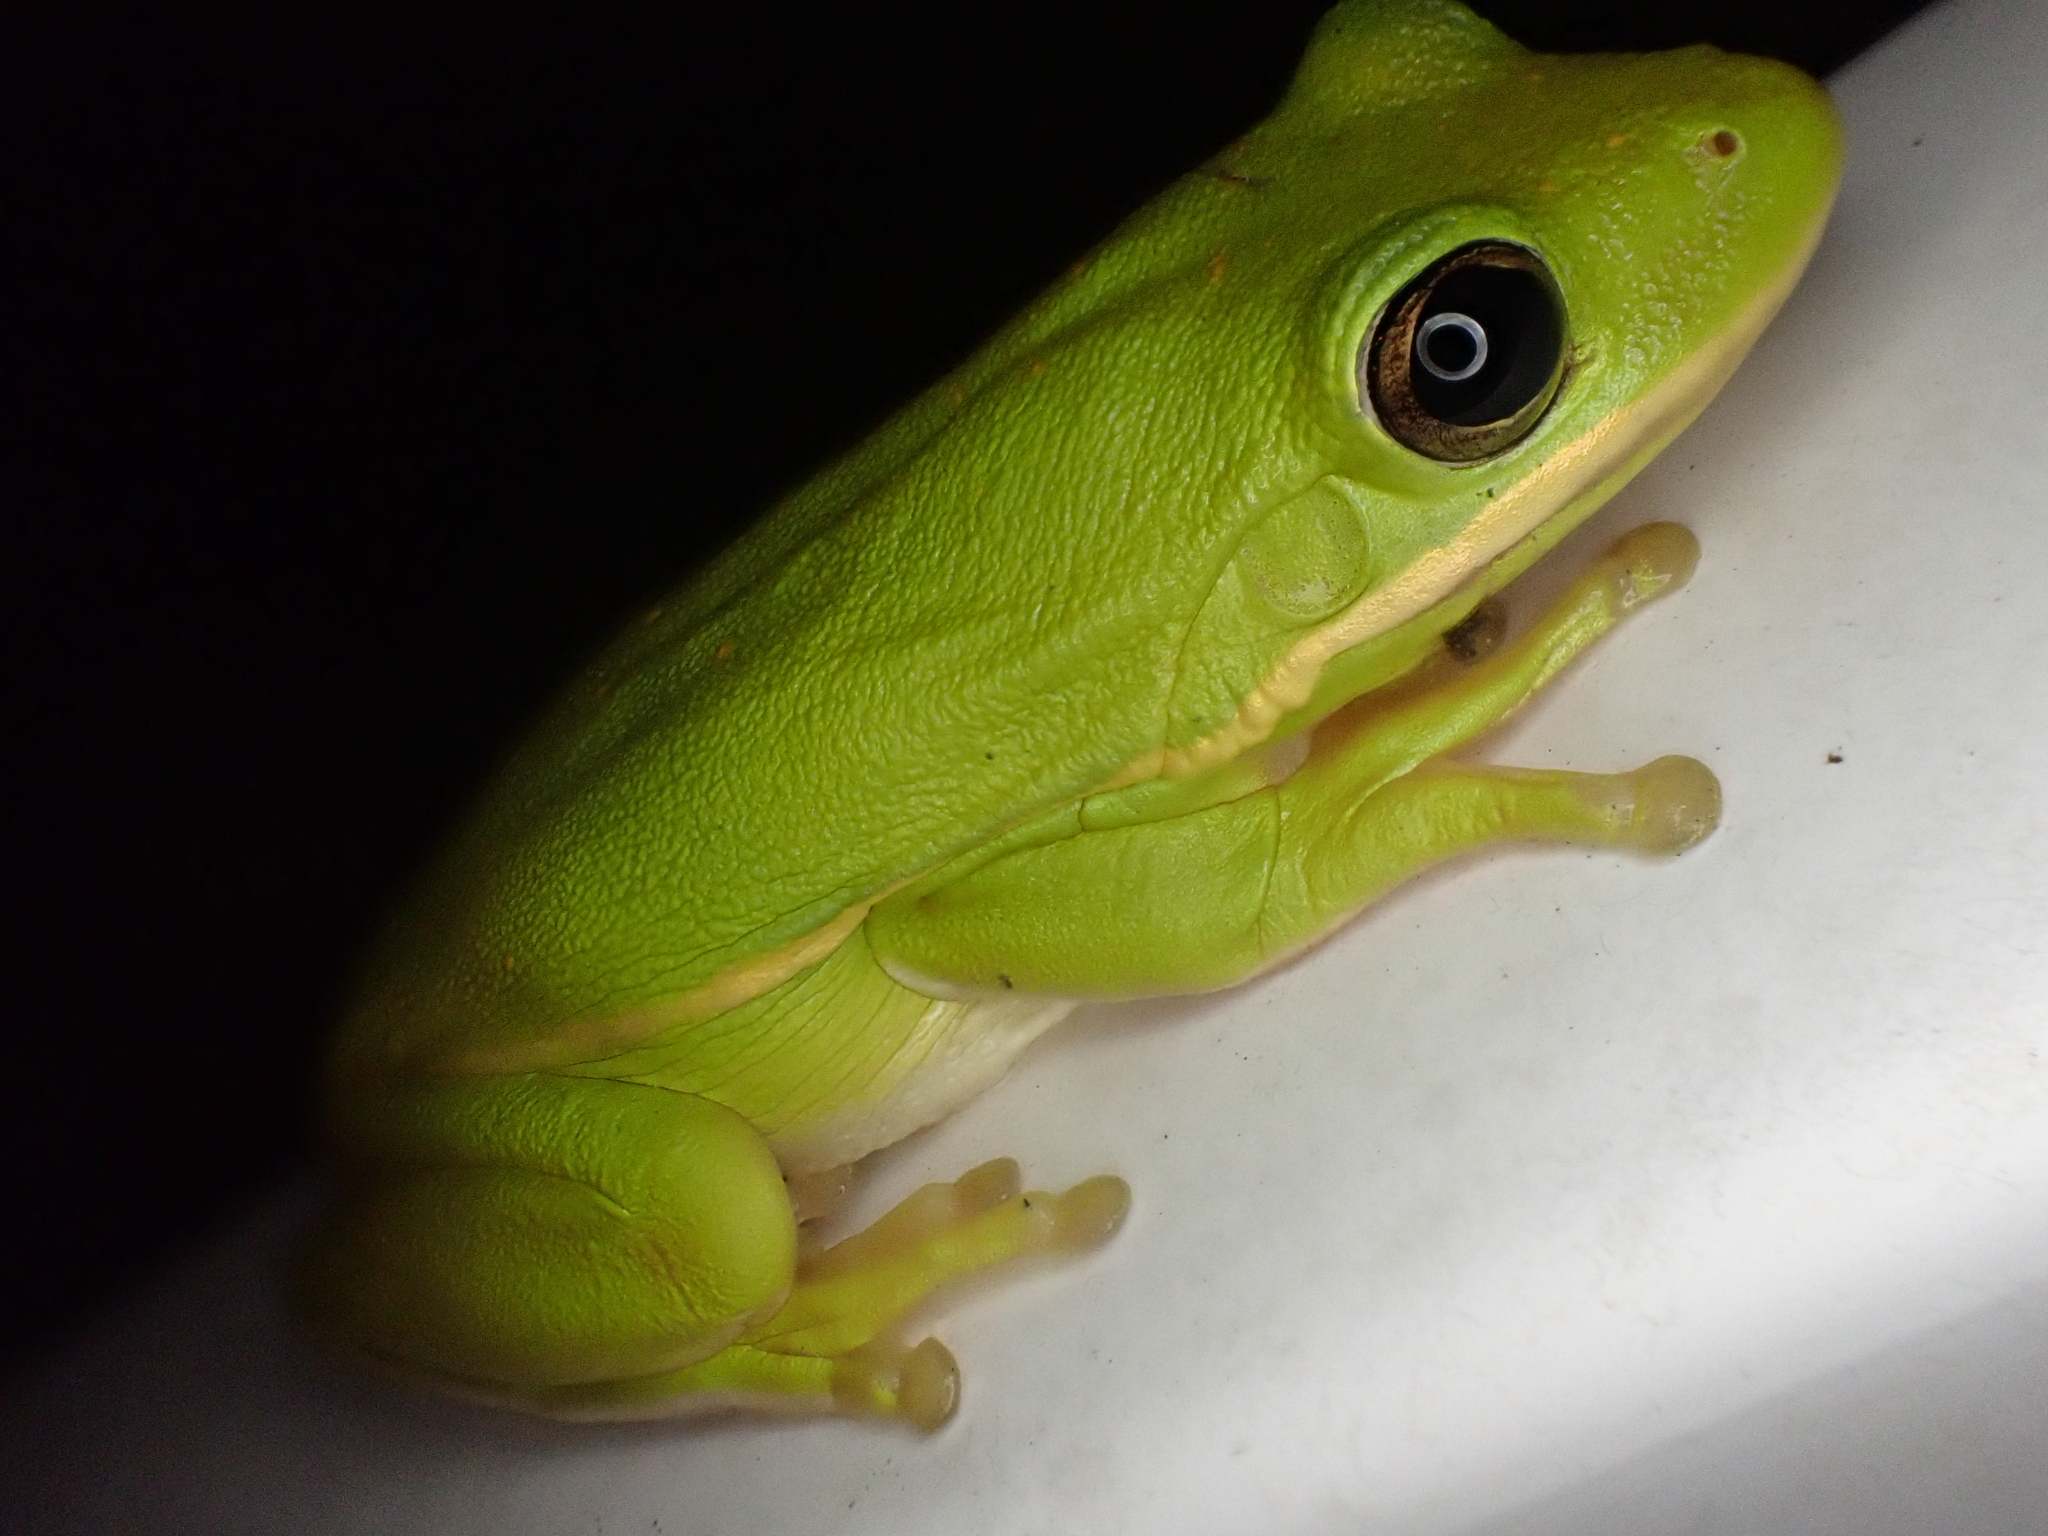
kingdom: Animalia
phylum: Chordata
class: Amphibia
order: Anura
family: Hylidae
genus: Dryophytes
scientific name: Dryophytes cinereus
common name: Green treefrog
